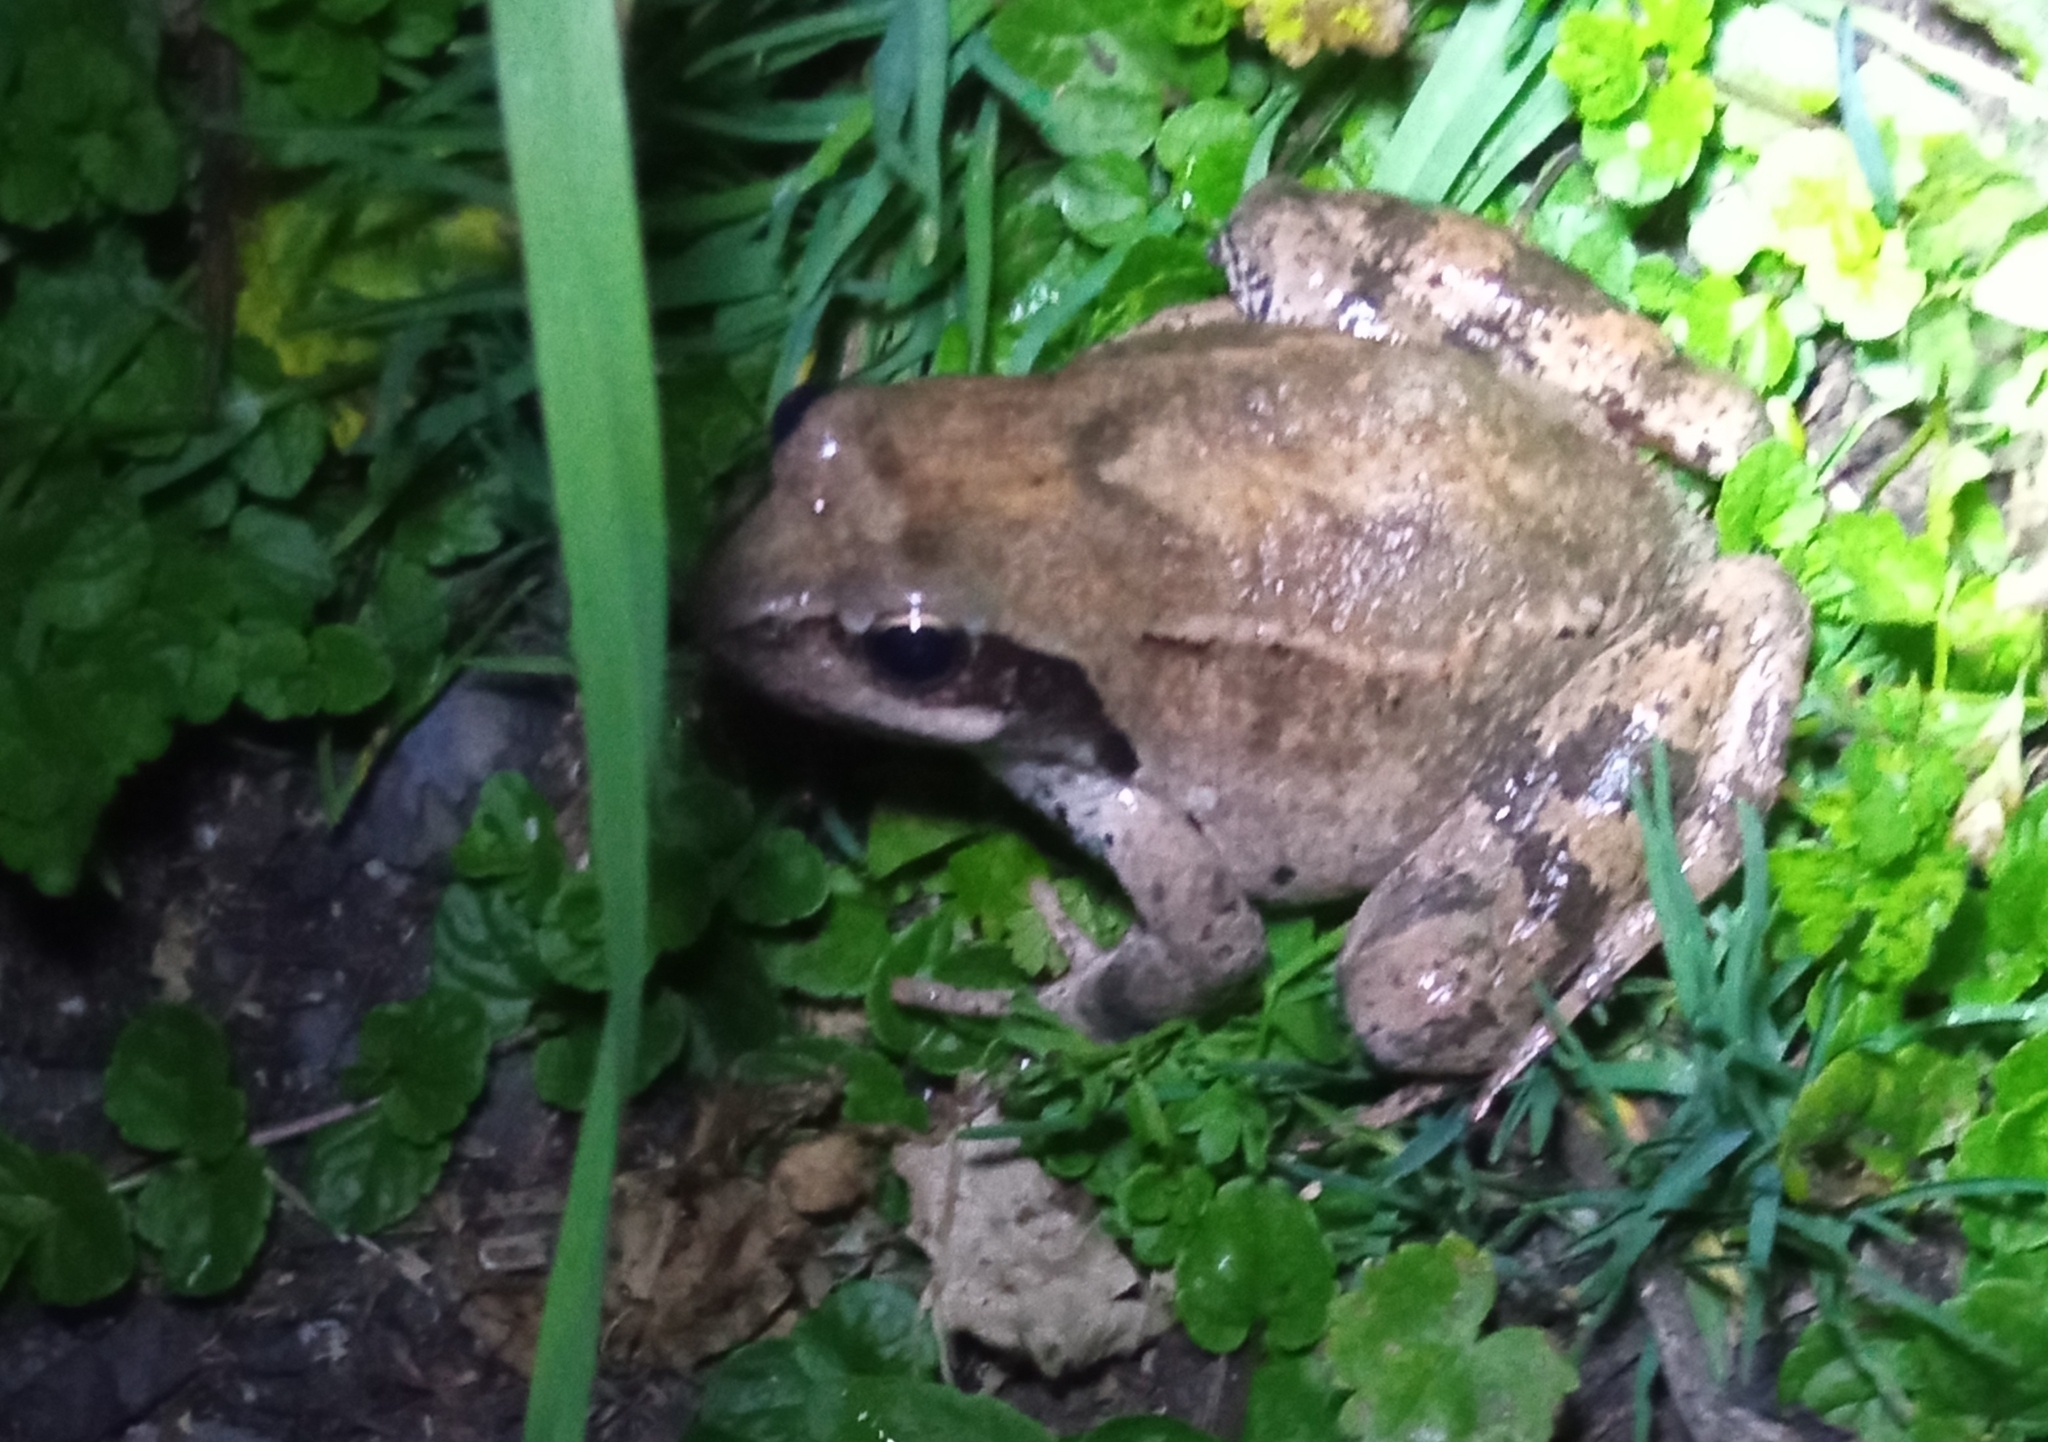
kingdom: Animalia
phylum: Chordata
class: Amphibia
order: Anura
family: Ranidae
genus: Rana
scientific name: Rana macrocnemis
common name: Banded frog
